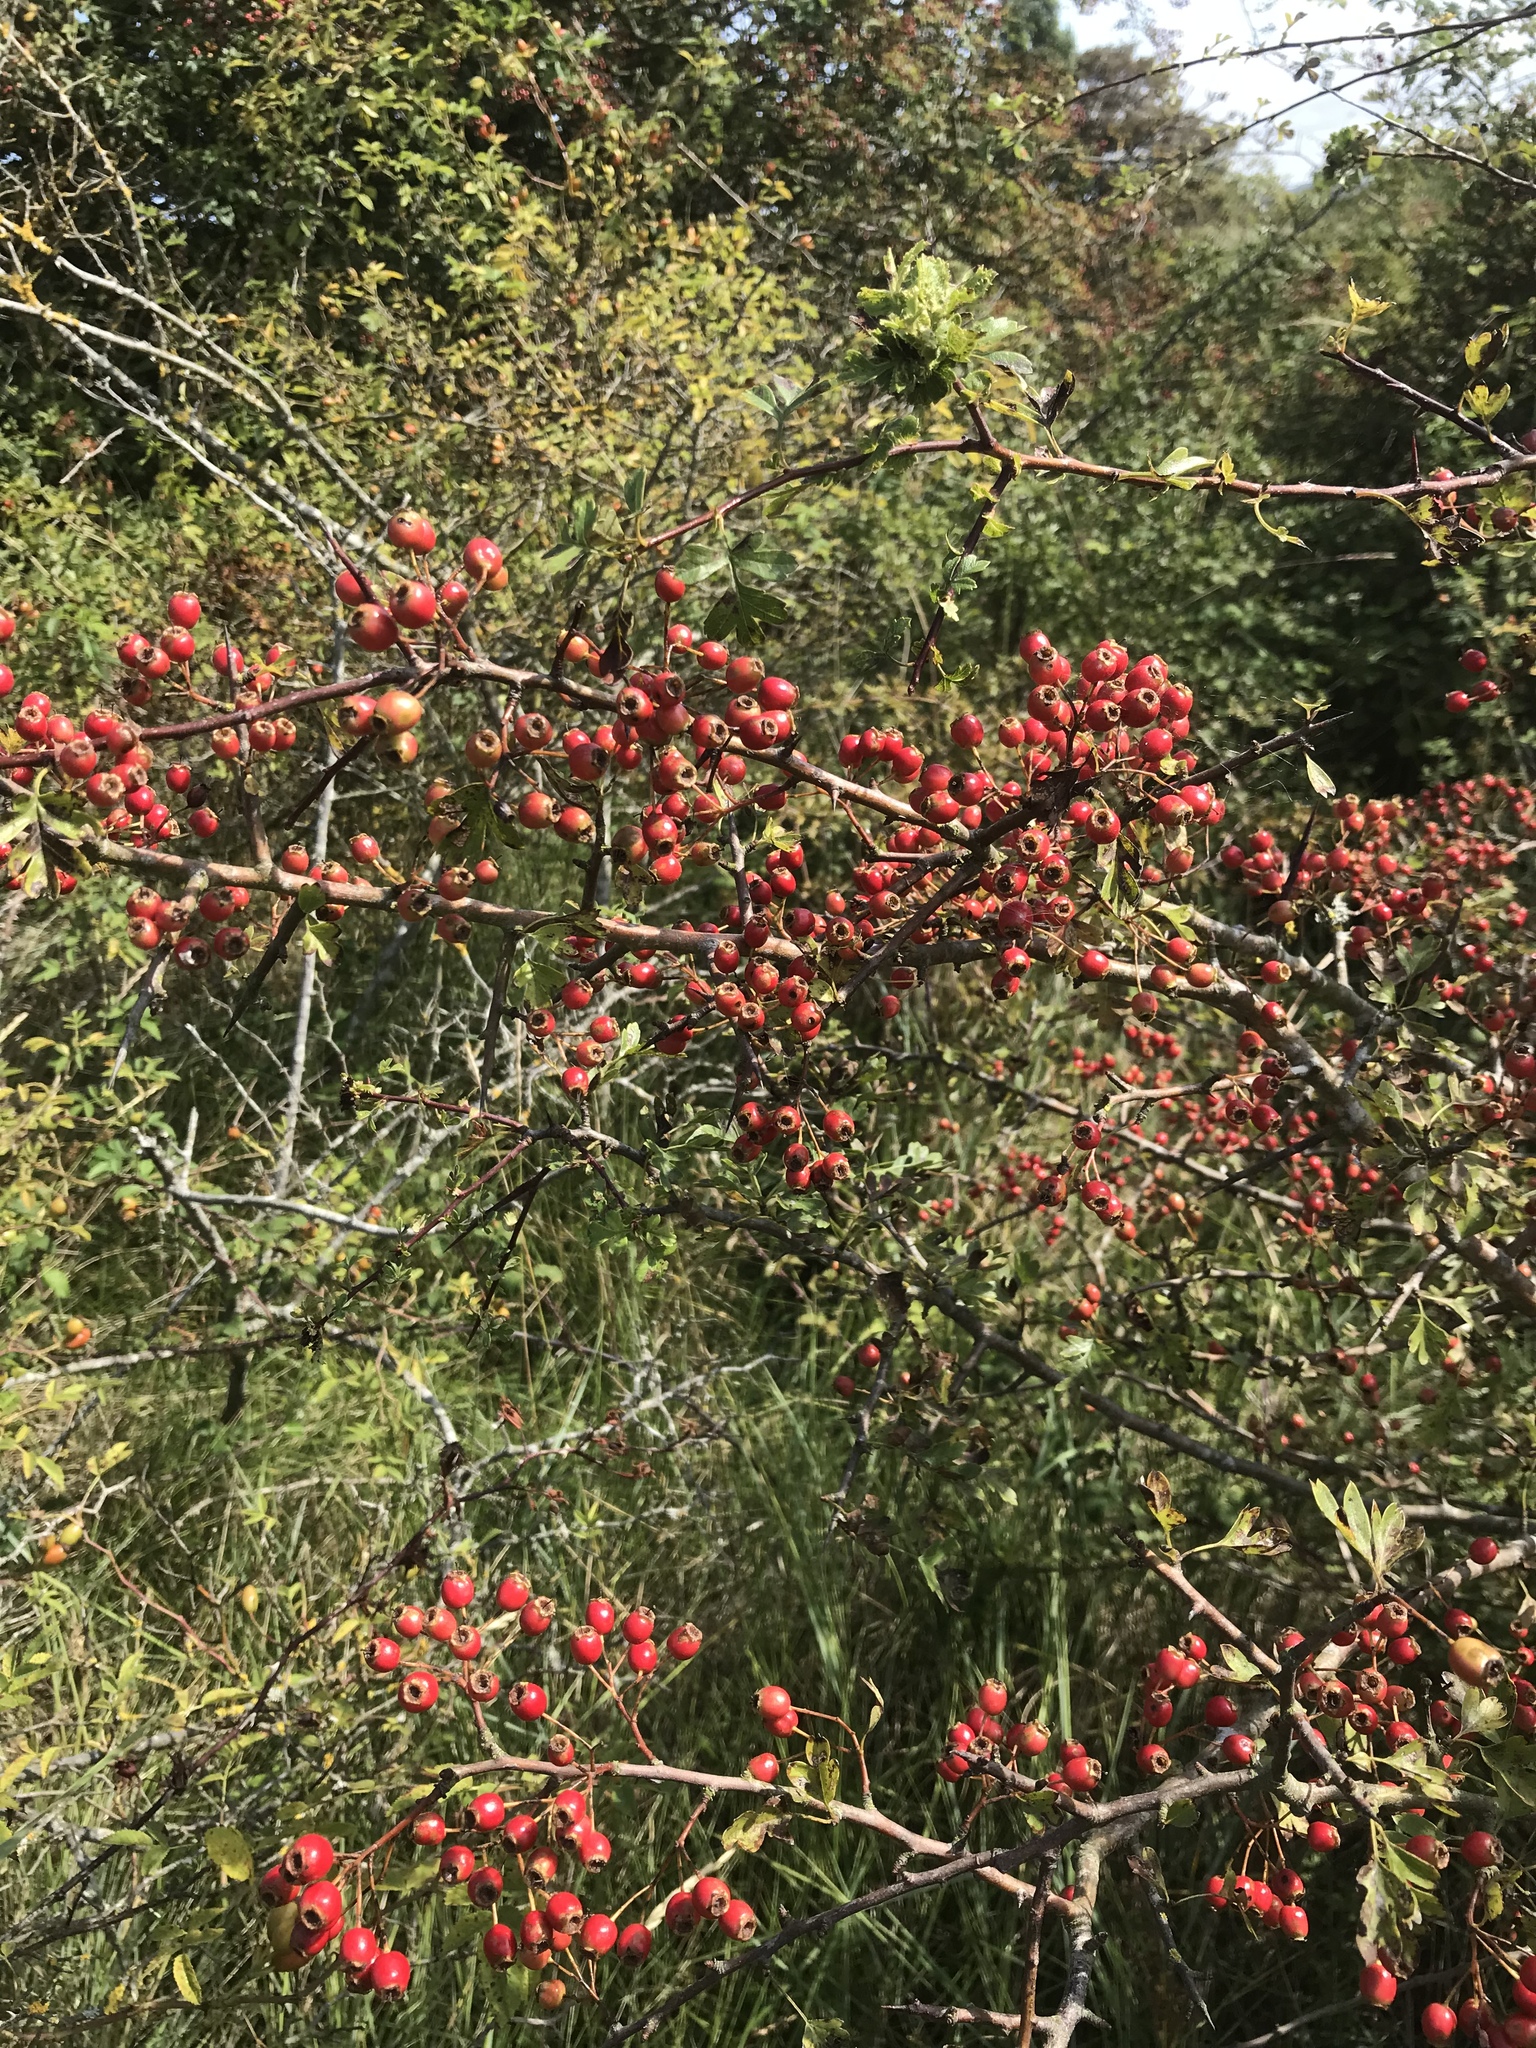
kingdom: Plantae
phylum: Tracheophyta
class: Magnoliopsida
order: Rosales
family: Rosaceae
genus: Crataegus
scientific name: Crataegus monogyna
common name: Hawthorn
